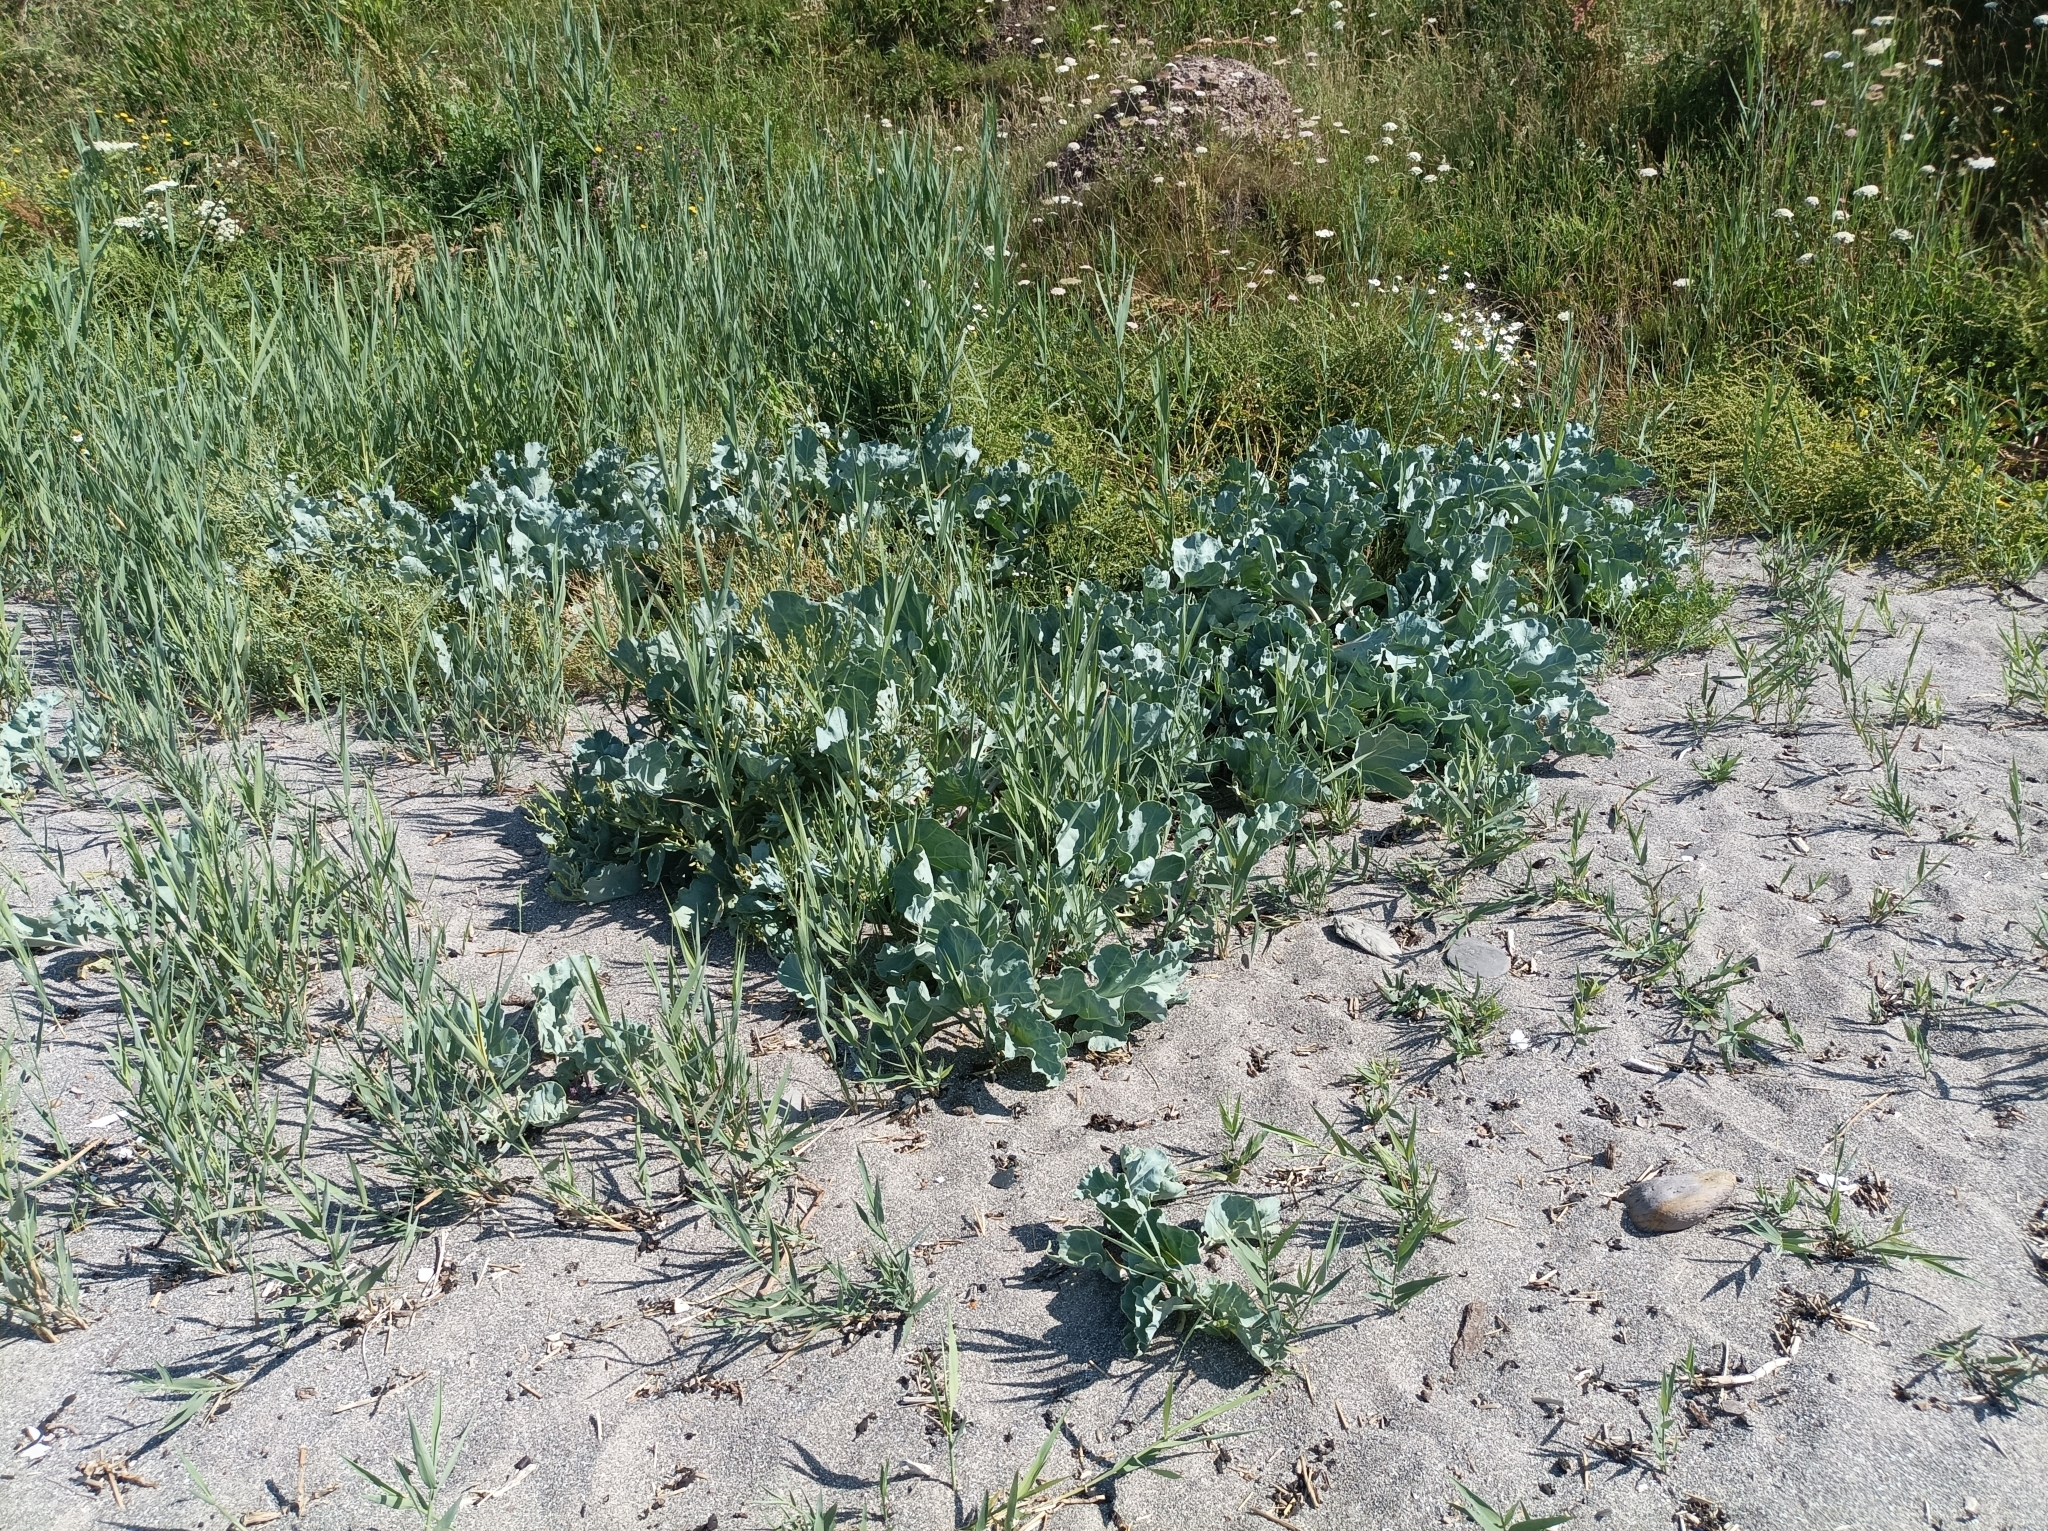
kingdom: Plantae
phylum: Tracheophyta
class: Magnoliopsida
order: Brassicales
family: Brassicaceae
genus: Crambe
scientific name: Crambe maritima
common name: Sea-kale
